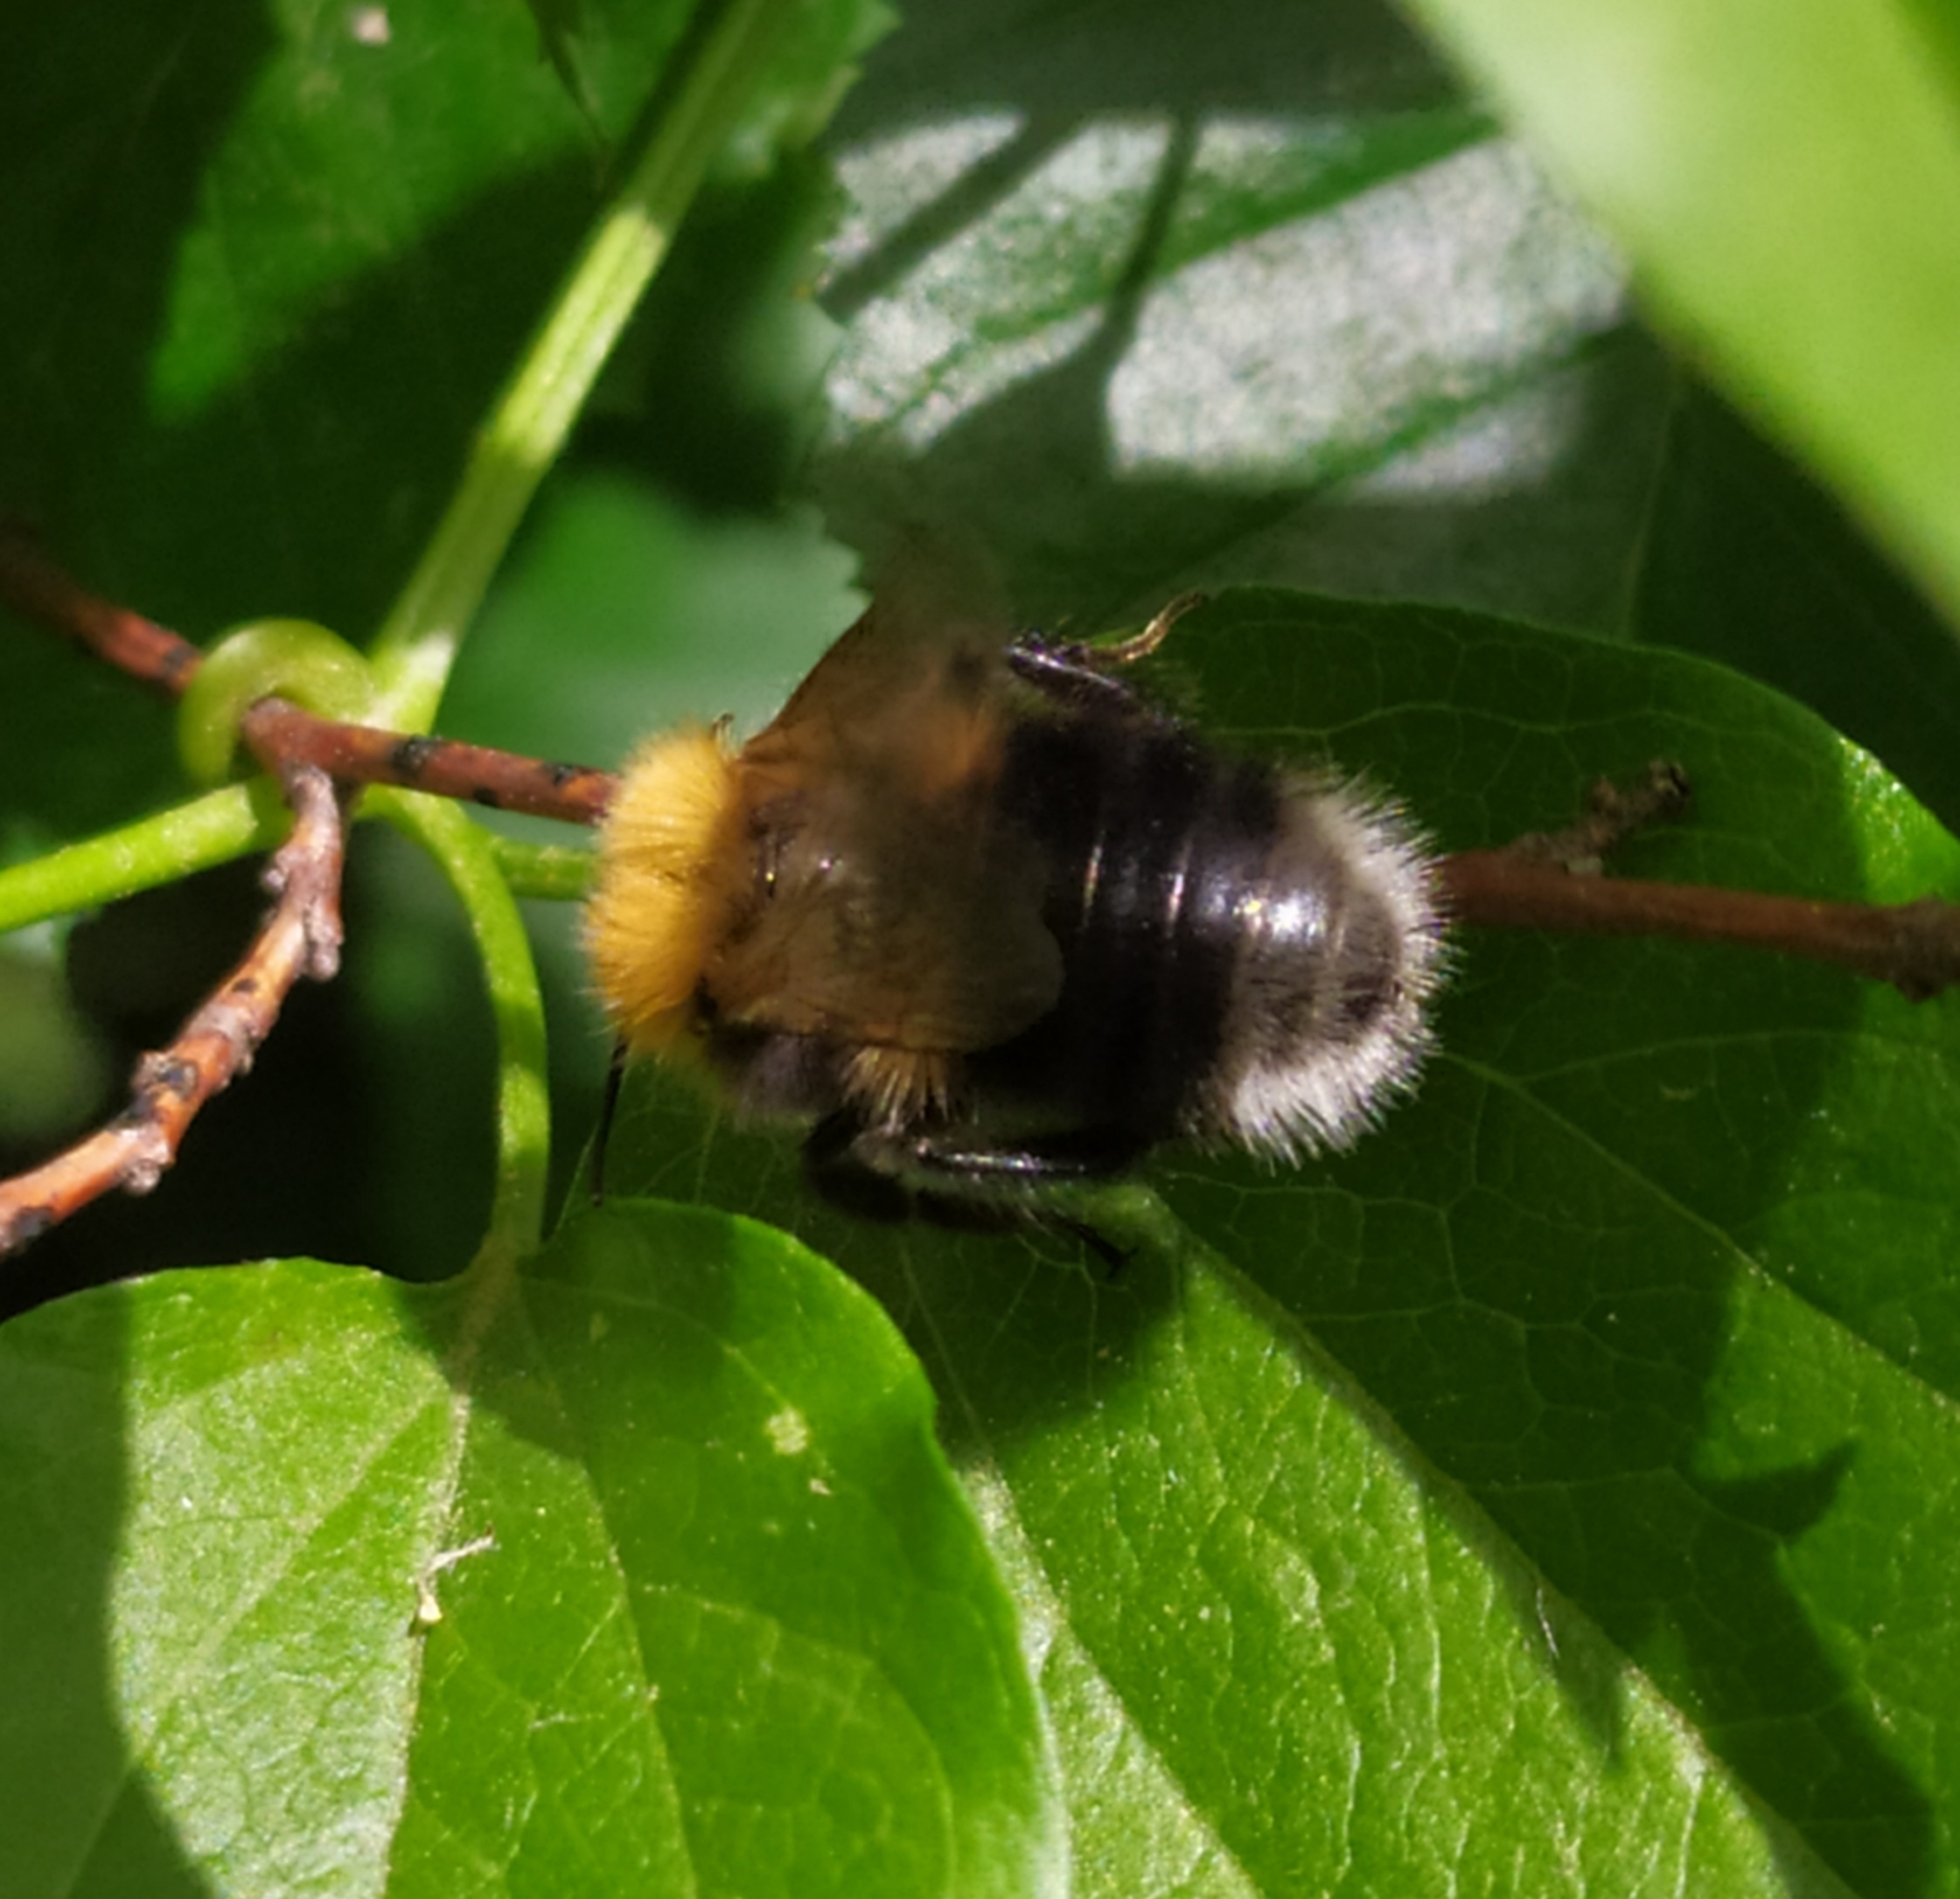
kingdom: Animalia
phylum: Arthropoda
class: Insecta
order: Hymenoptera
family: Apidae
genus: Bombus
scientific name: Bombus hypnorum
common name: New garden bumblebee
